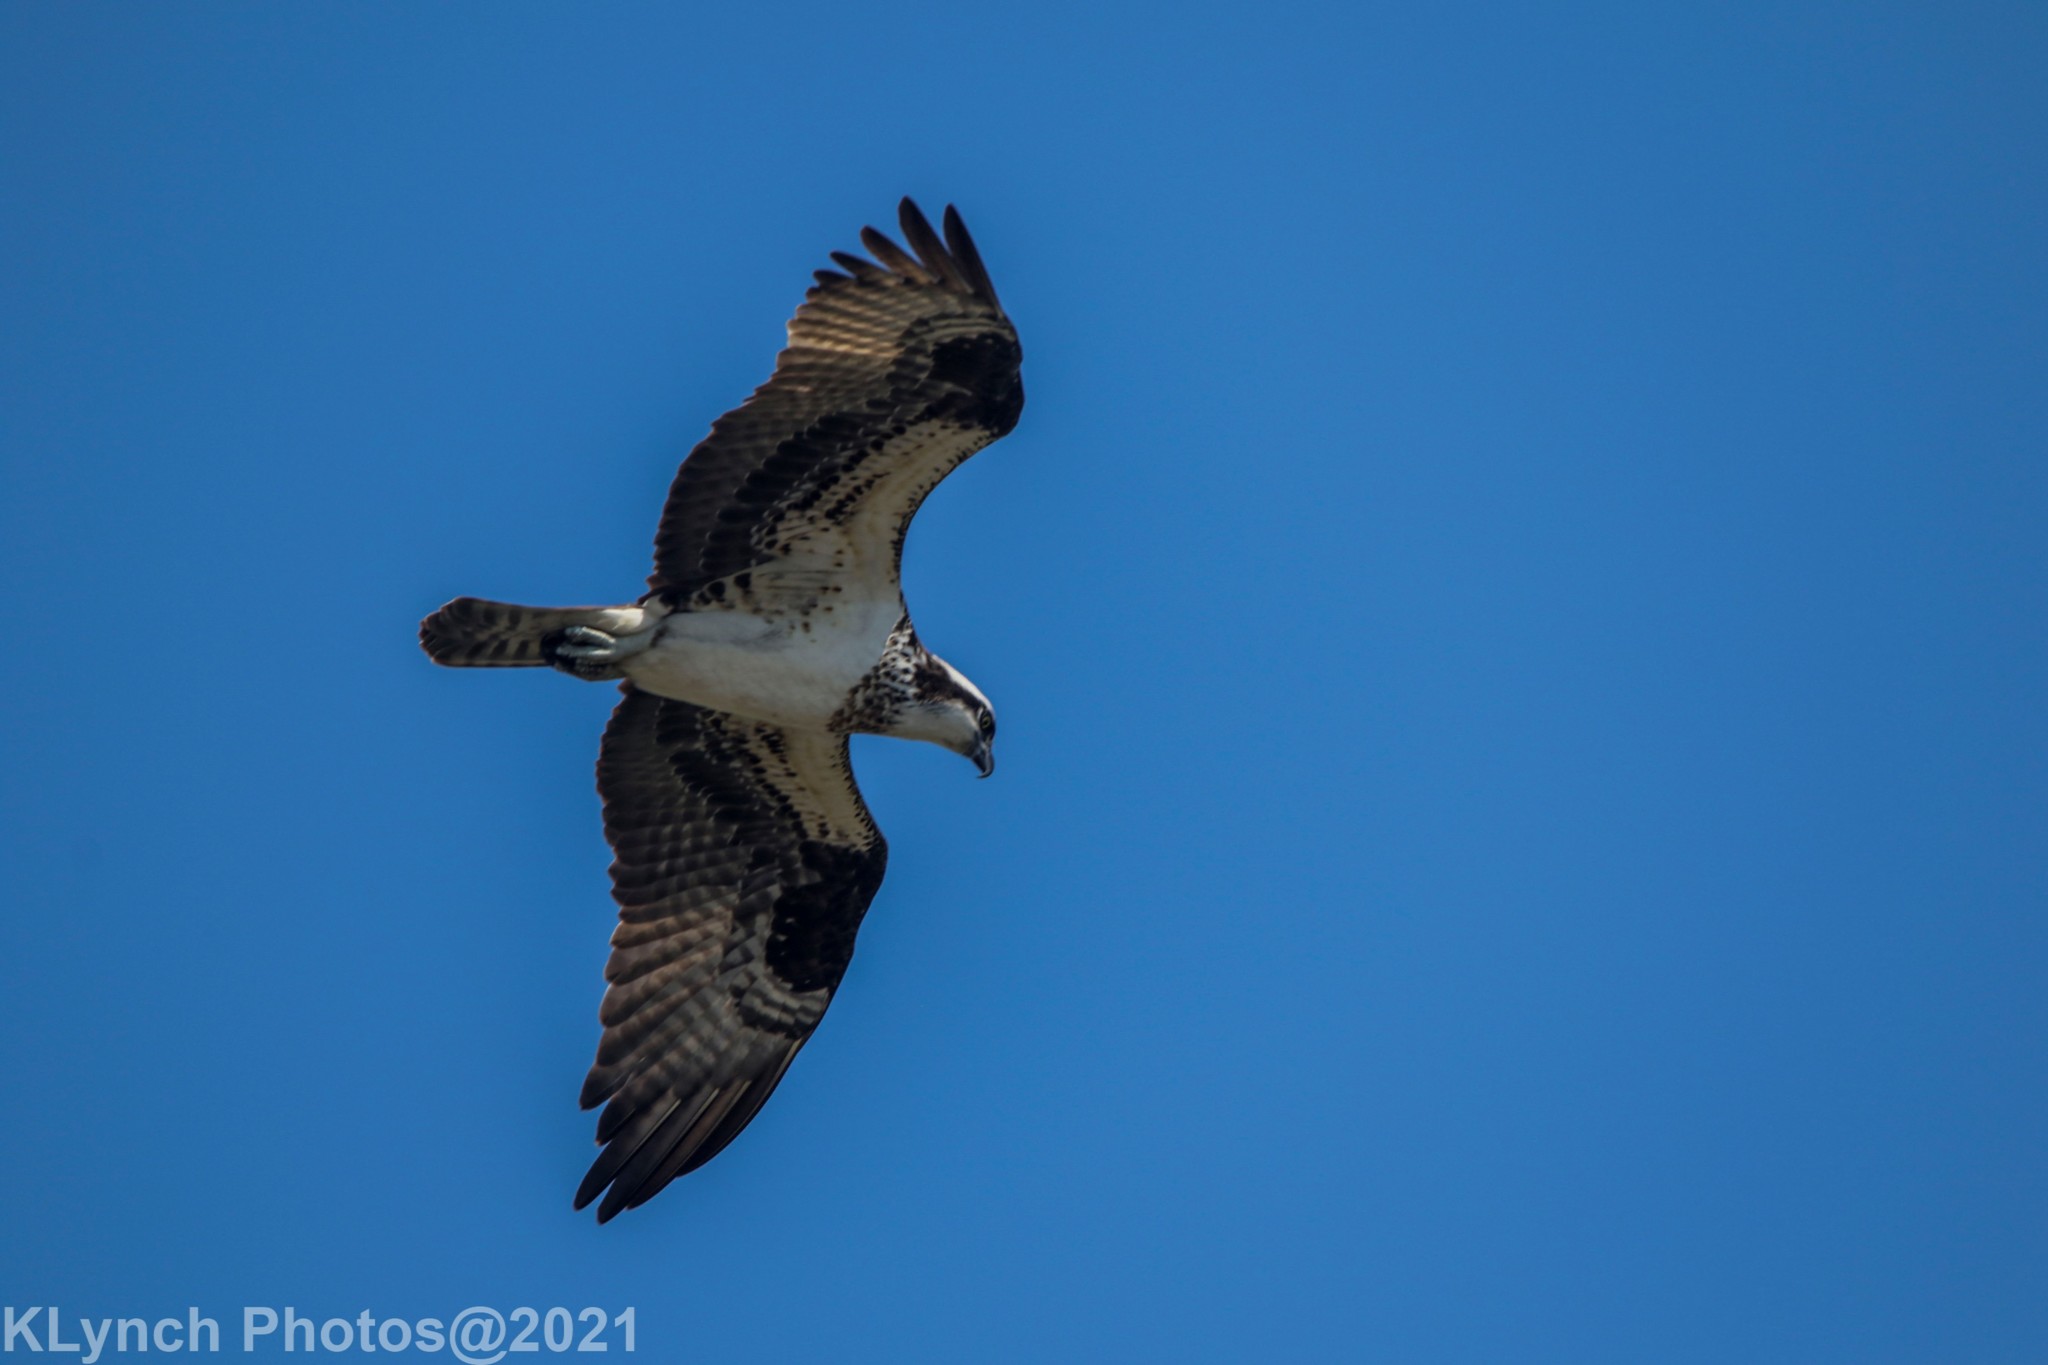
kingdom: Animalia
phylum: Chordata
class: Aves
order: Accipitriformes
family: Pandionidae
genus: Pandion
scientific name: Pandion haliaetus
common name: Osprey
